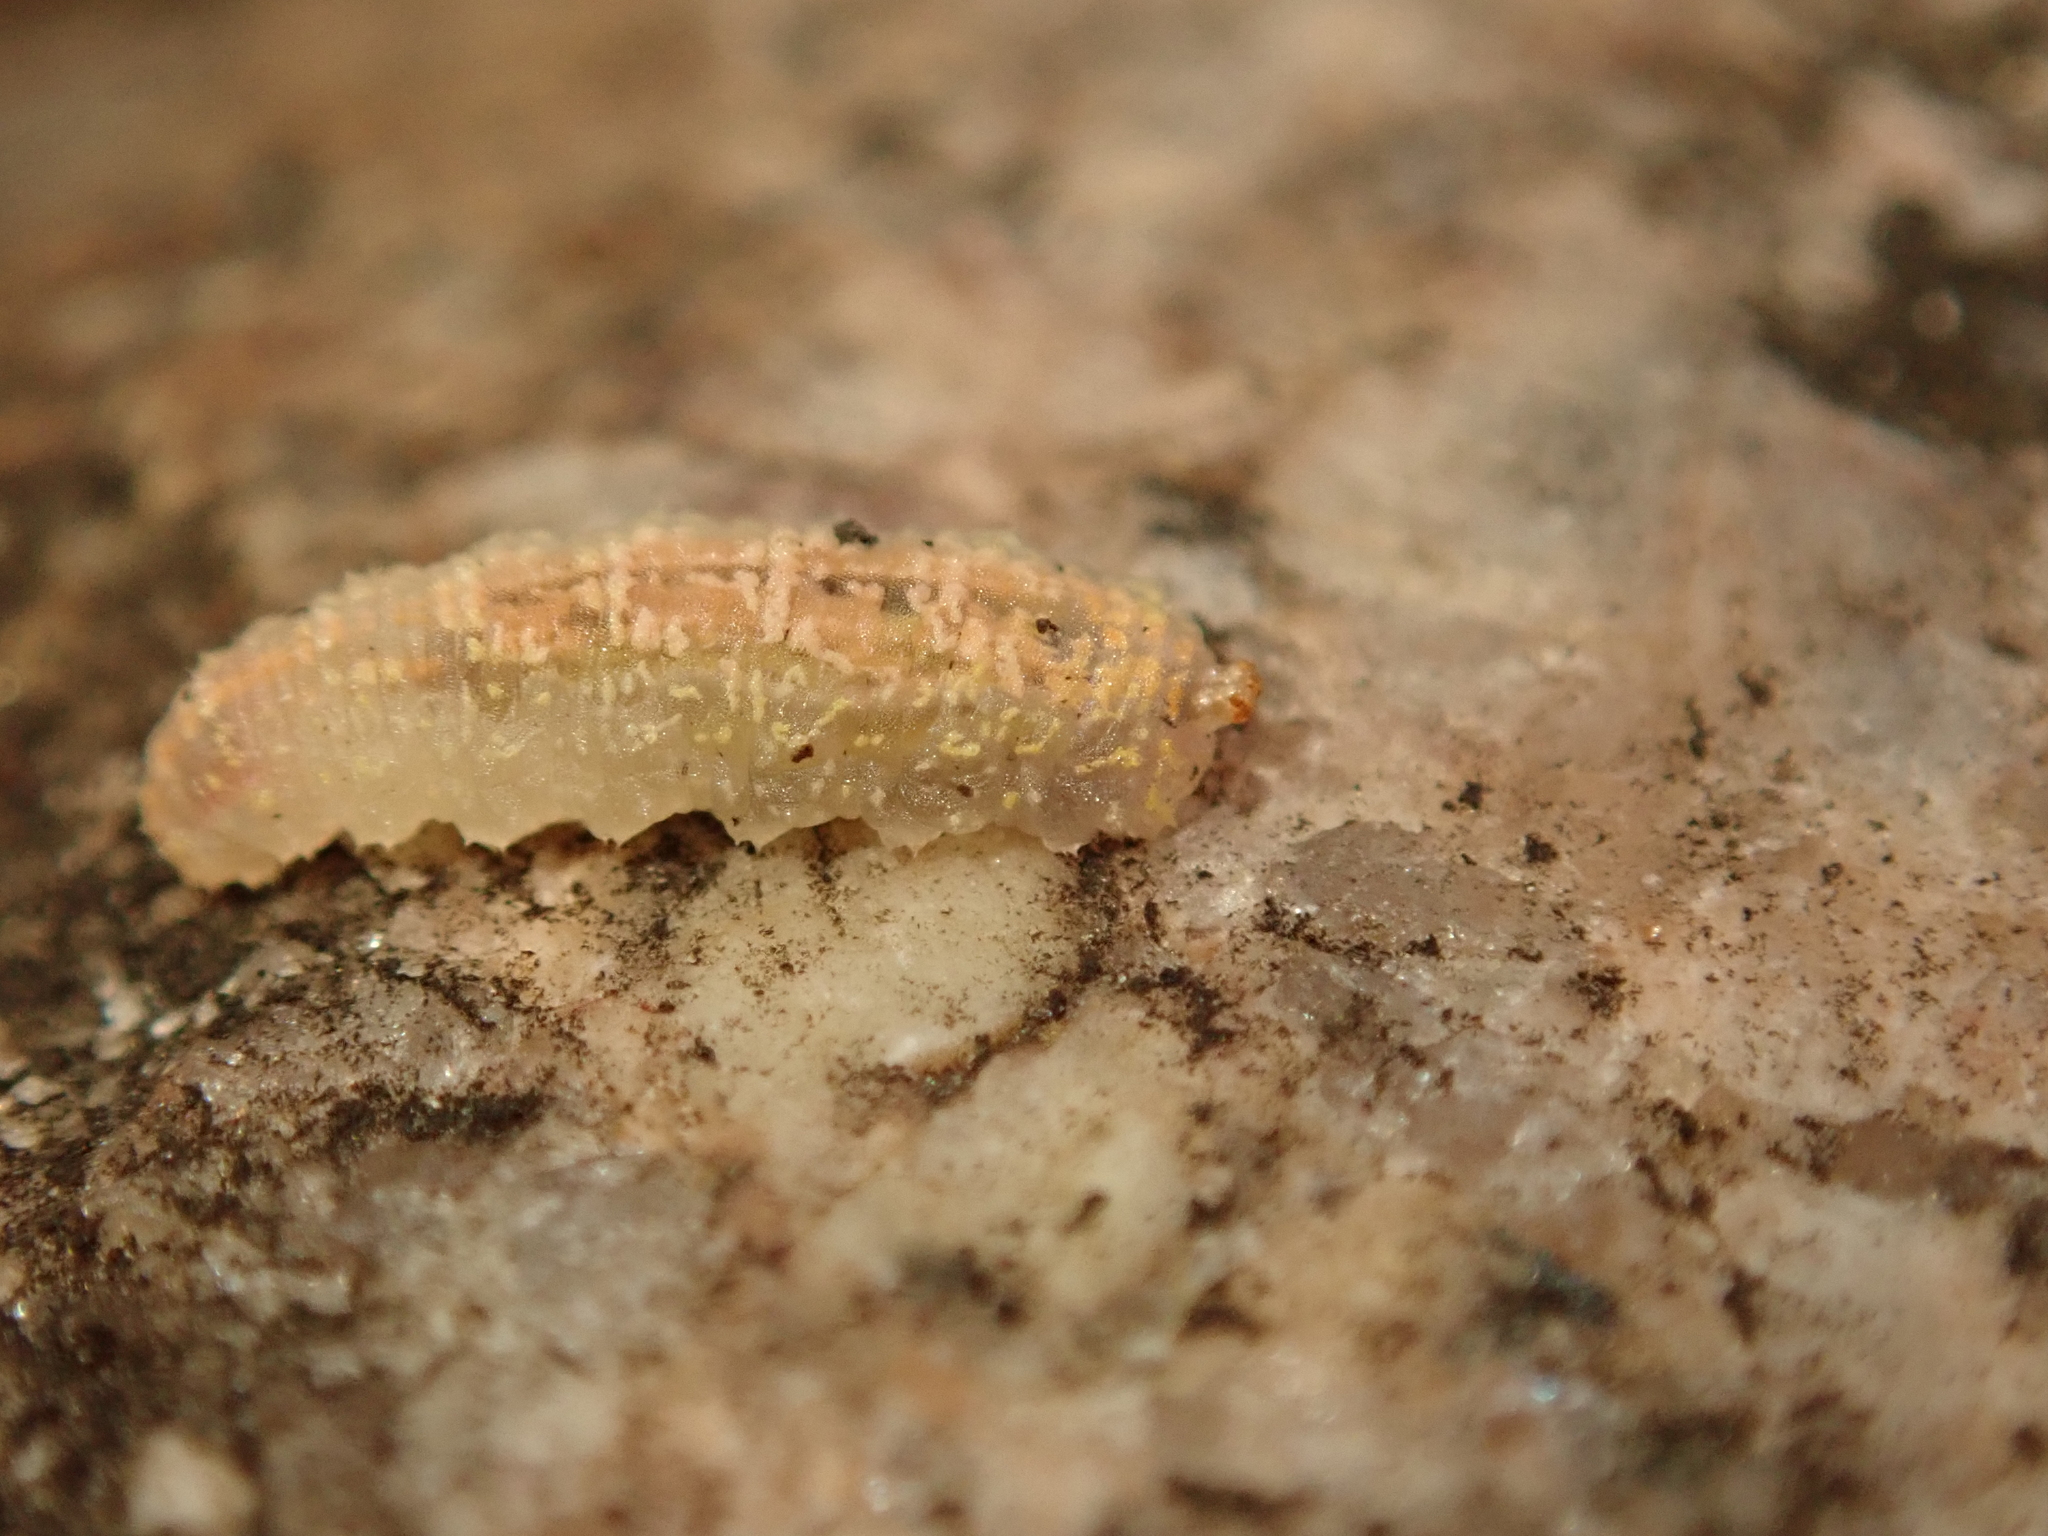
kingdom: Animalia
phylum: Arthropoda
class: Insecta
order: Diptera
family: Syrphidae
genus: Syrphus
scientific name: Syrphus
